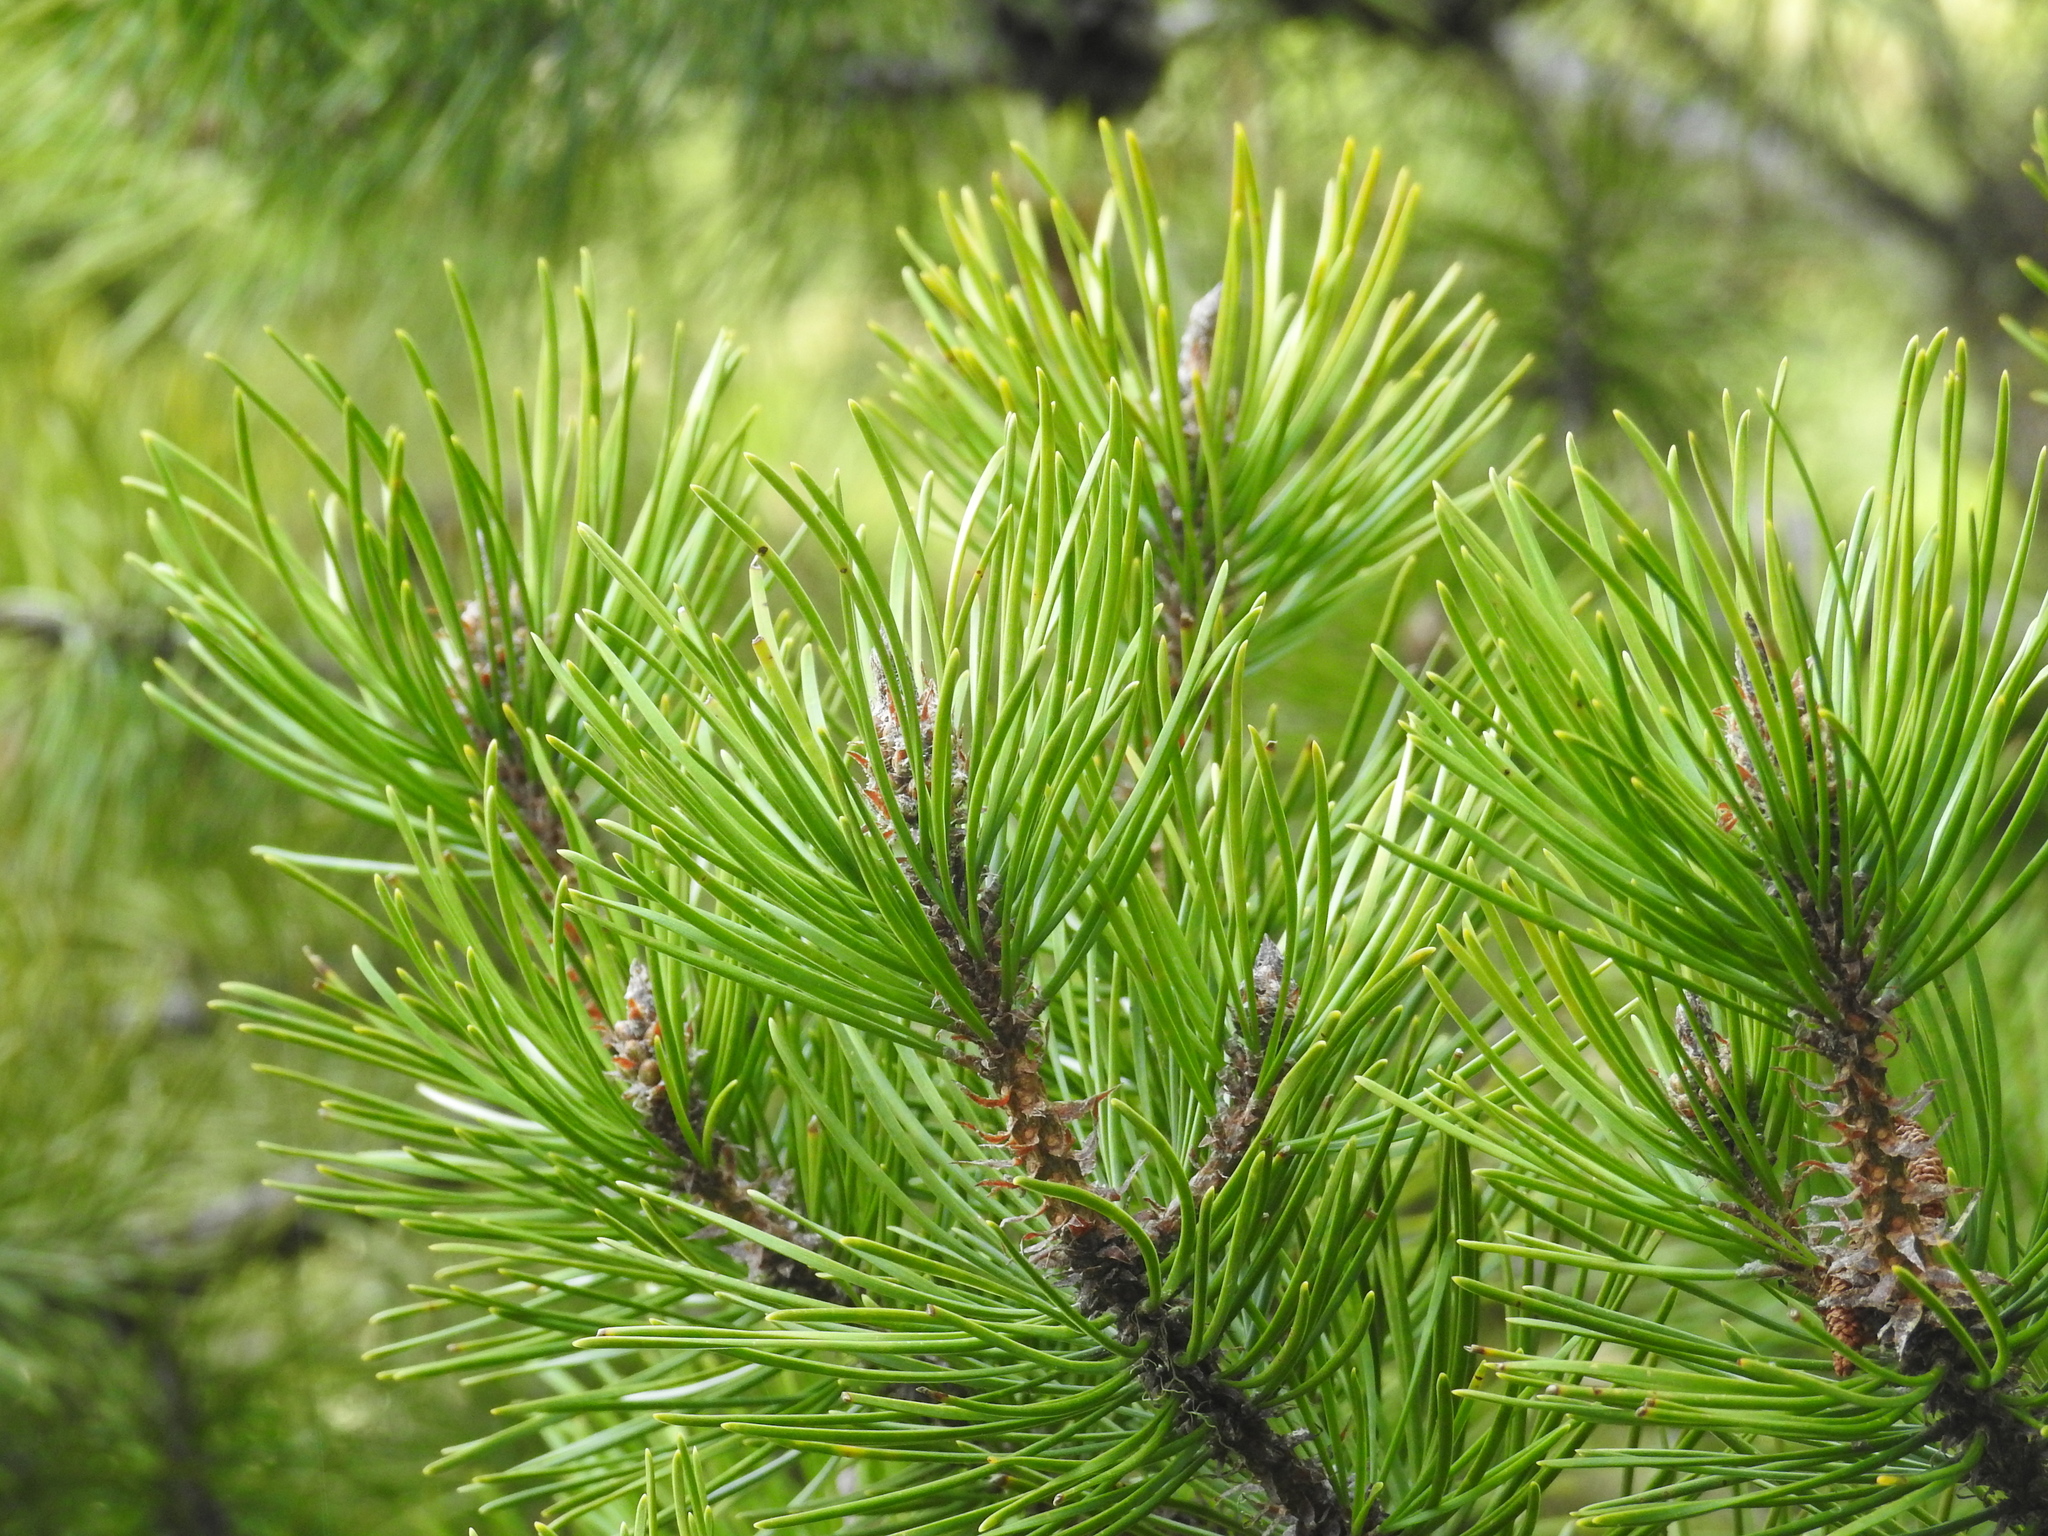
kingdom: Plantae
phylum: Tracheophyta
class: Pinopsida
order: Pinales
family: Pinaceae
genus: Pinus
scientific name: Pinus contorta
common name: Lodgepole pine
